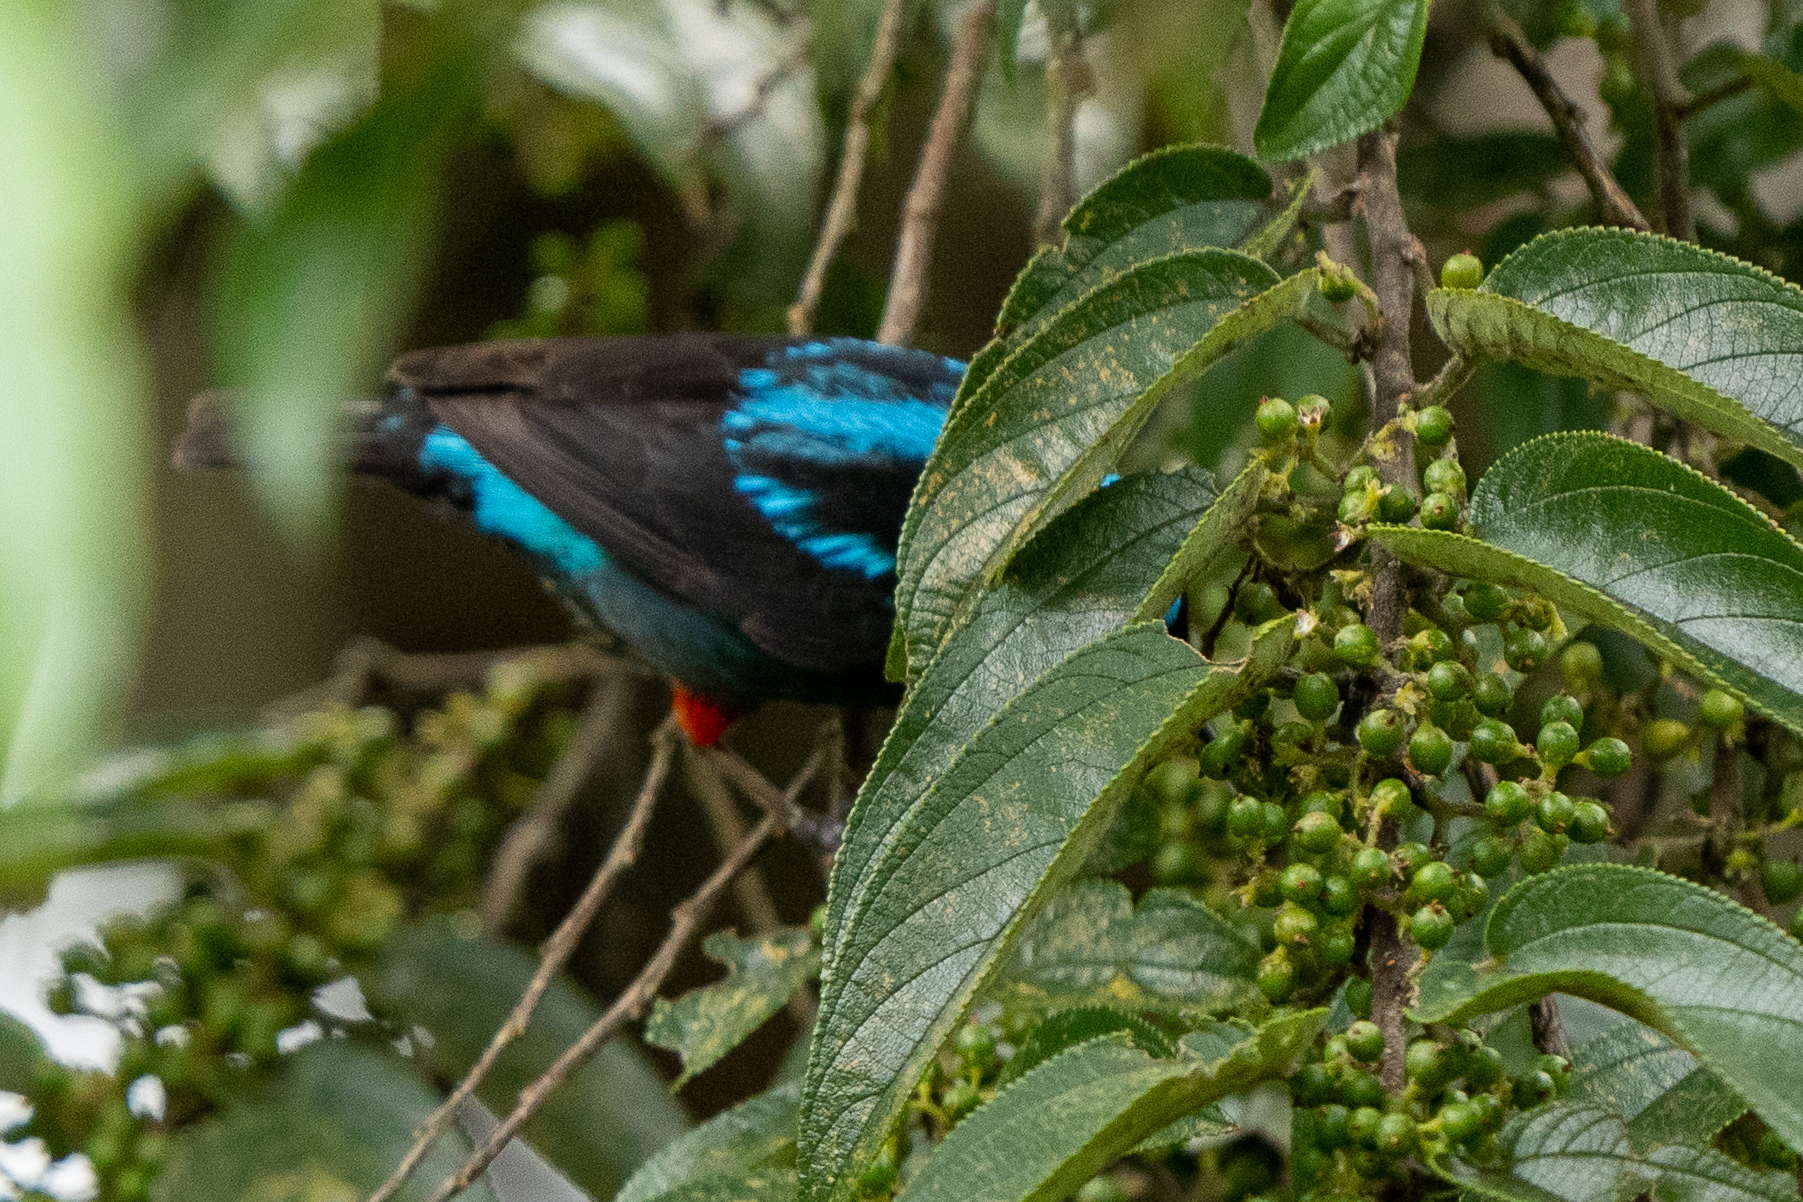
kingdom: Animalia
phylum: Chordata
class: Aves
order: Passeriformes
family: Thraupidae
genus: Dacnis
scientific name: Dacnis venusta
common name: Scarlet-thighed dacnis
